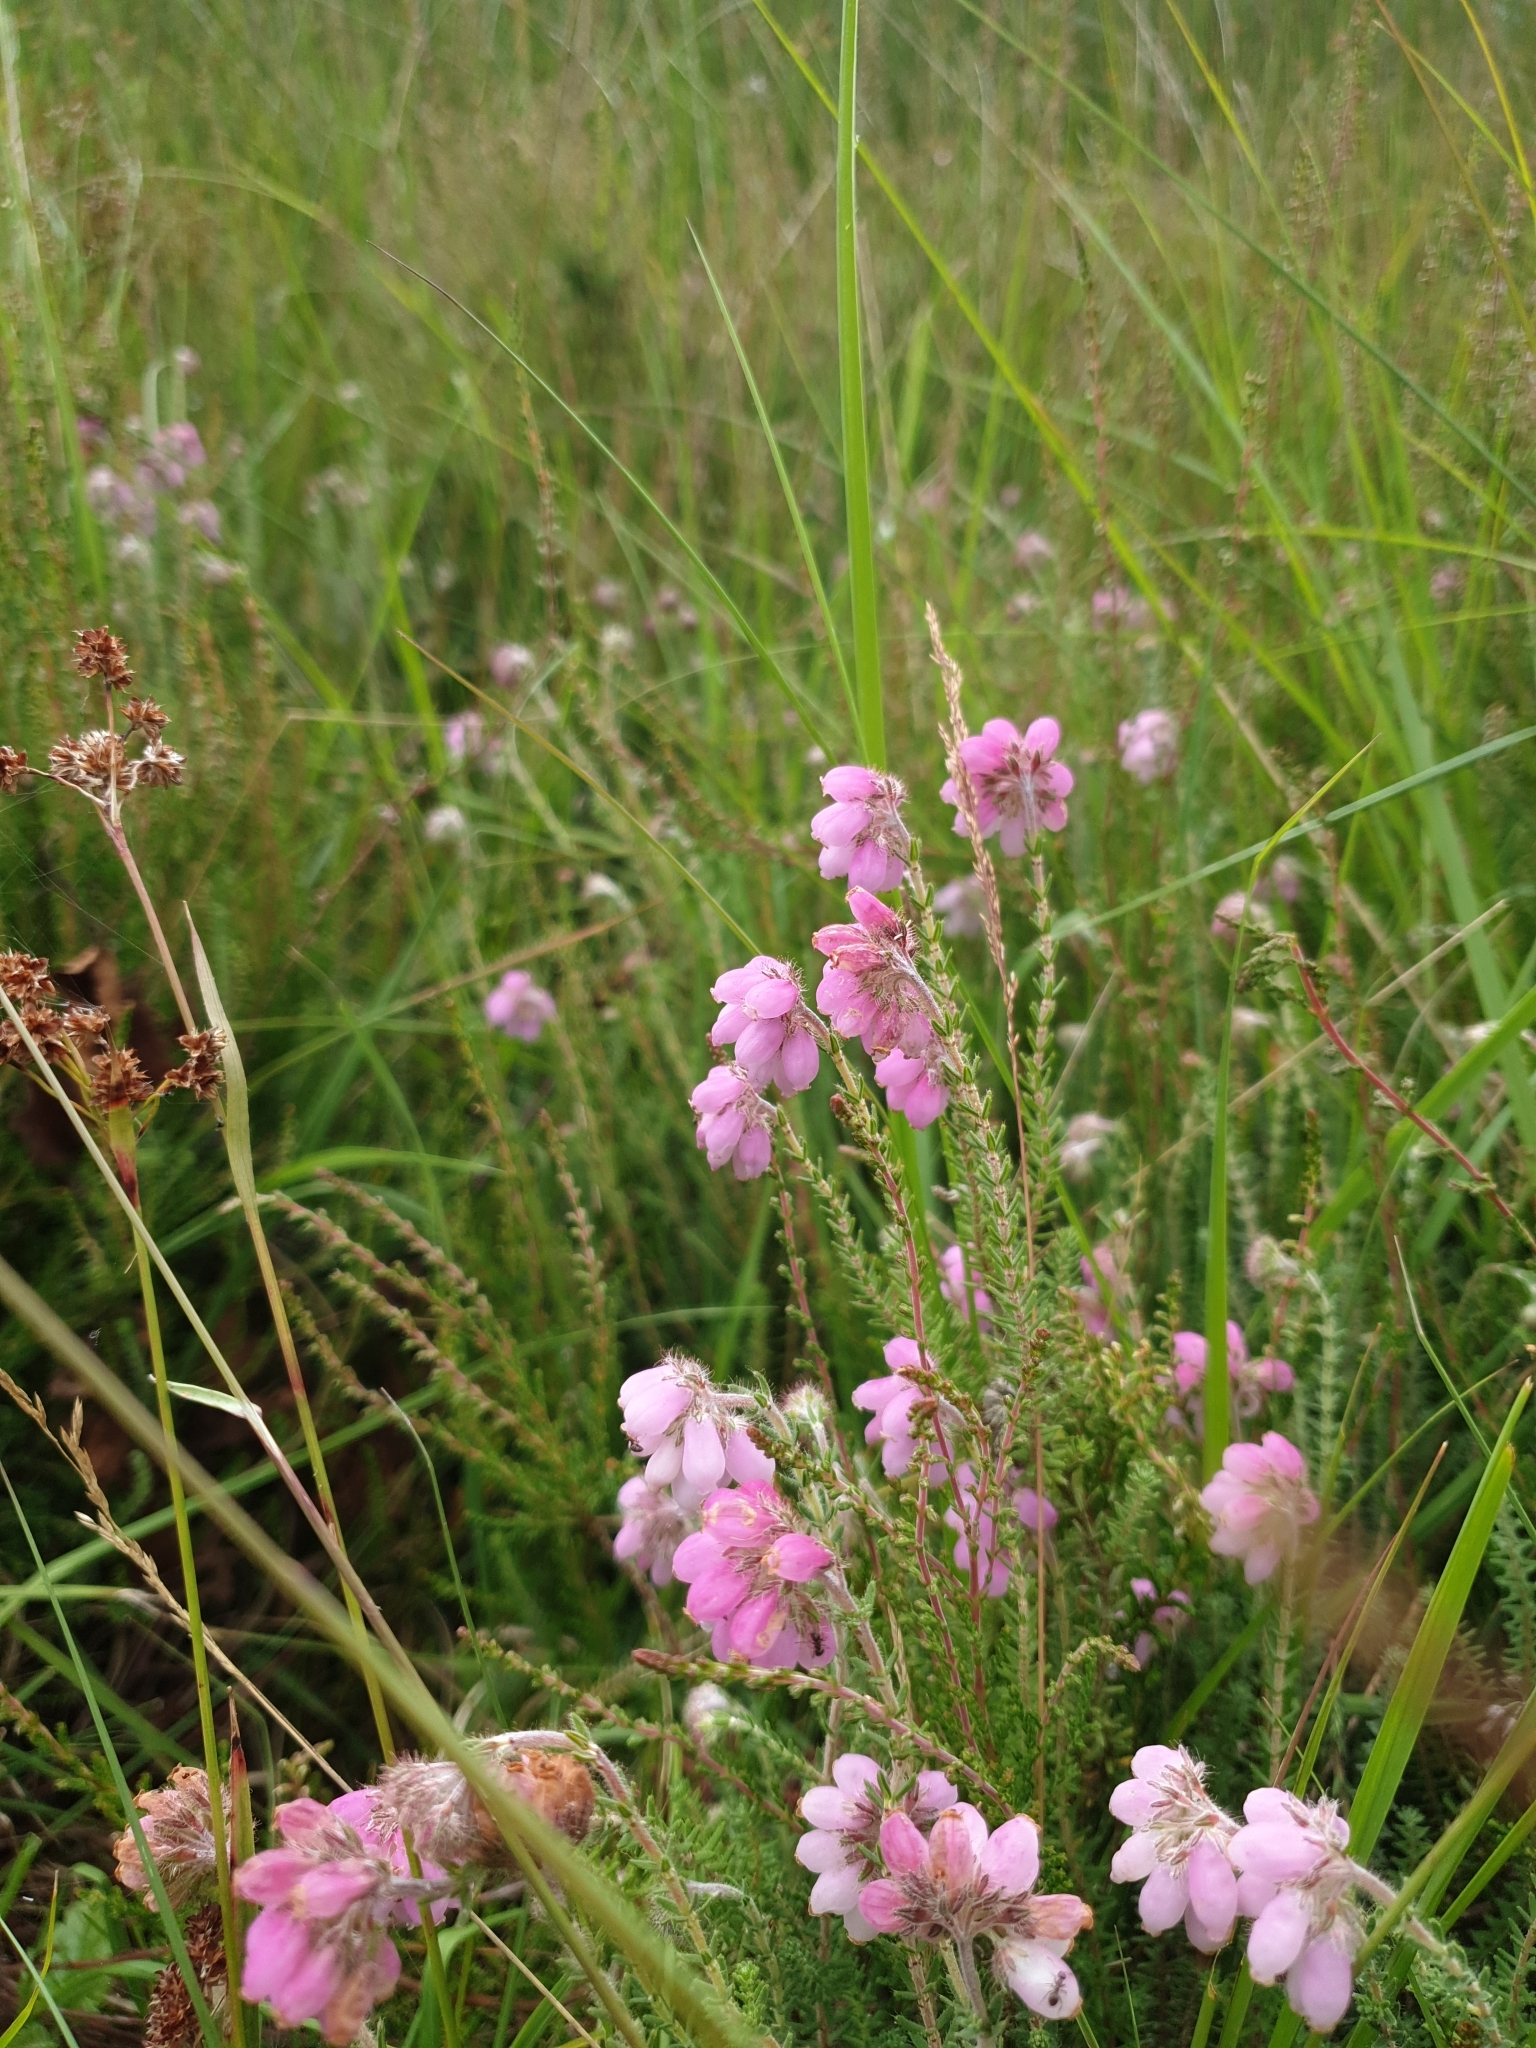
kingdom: Plantae
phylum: Tracheophyta
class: Magnoliopsida
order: Ericales
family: Ericaceae
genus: Erica
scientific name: Erica tetralix
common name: Cross-leaved heath
